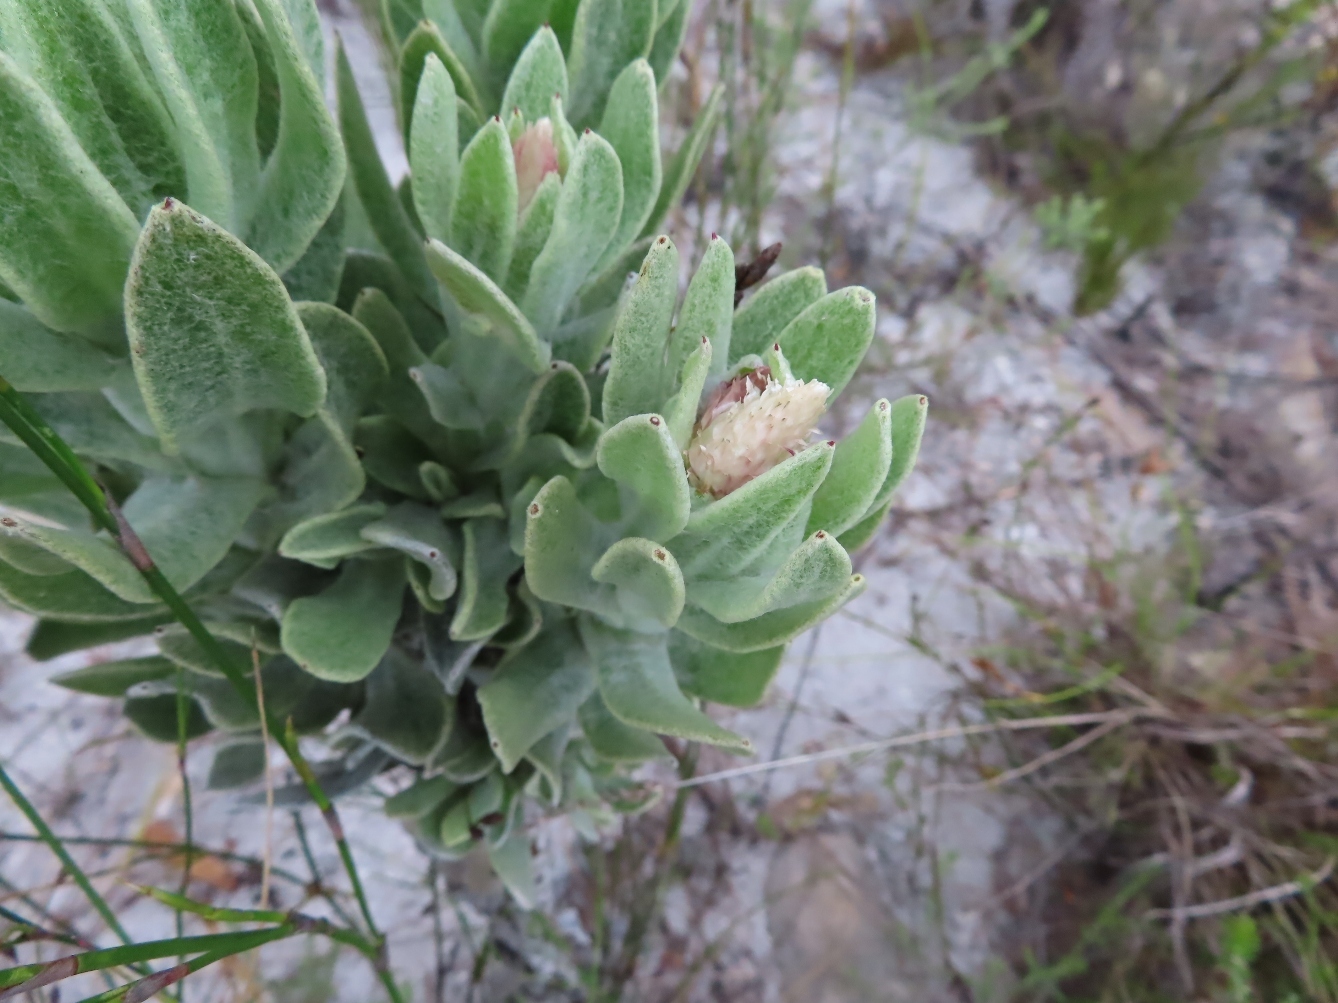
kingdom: Plantae
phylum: Tracheophyta
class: Magnoliopsida
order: Asterales
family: Asteraceae
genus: Syncarpha
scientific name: Syncarpha vestita
